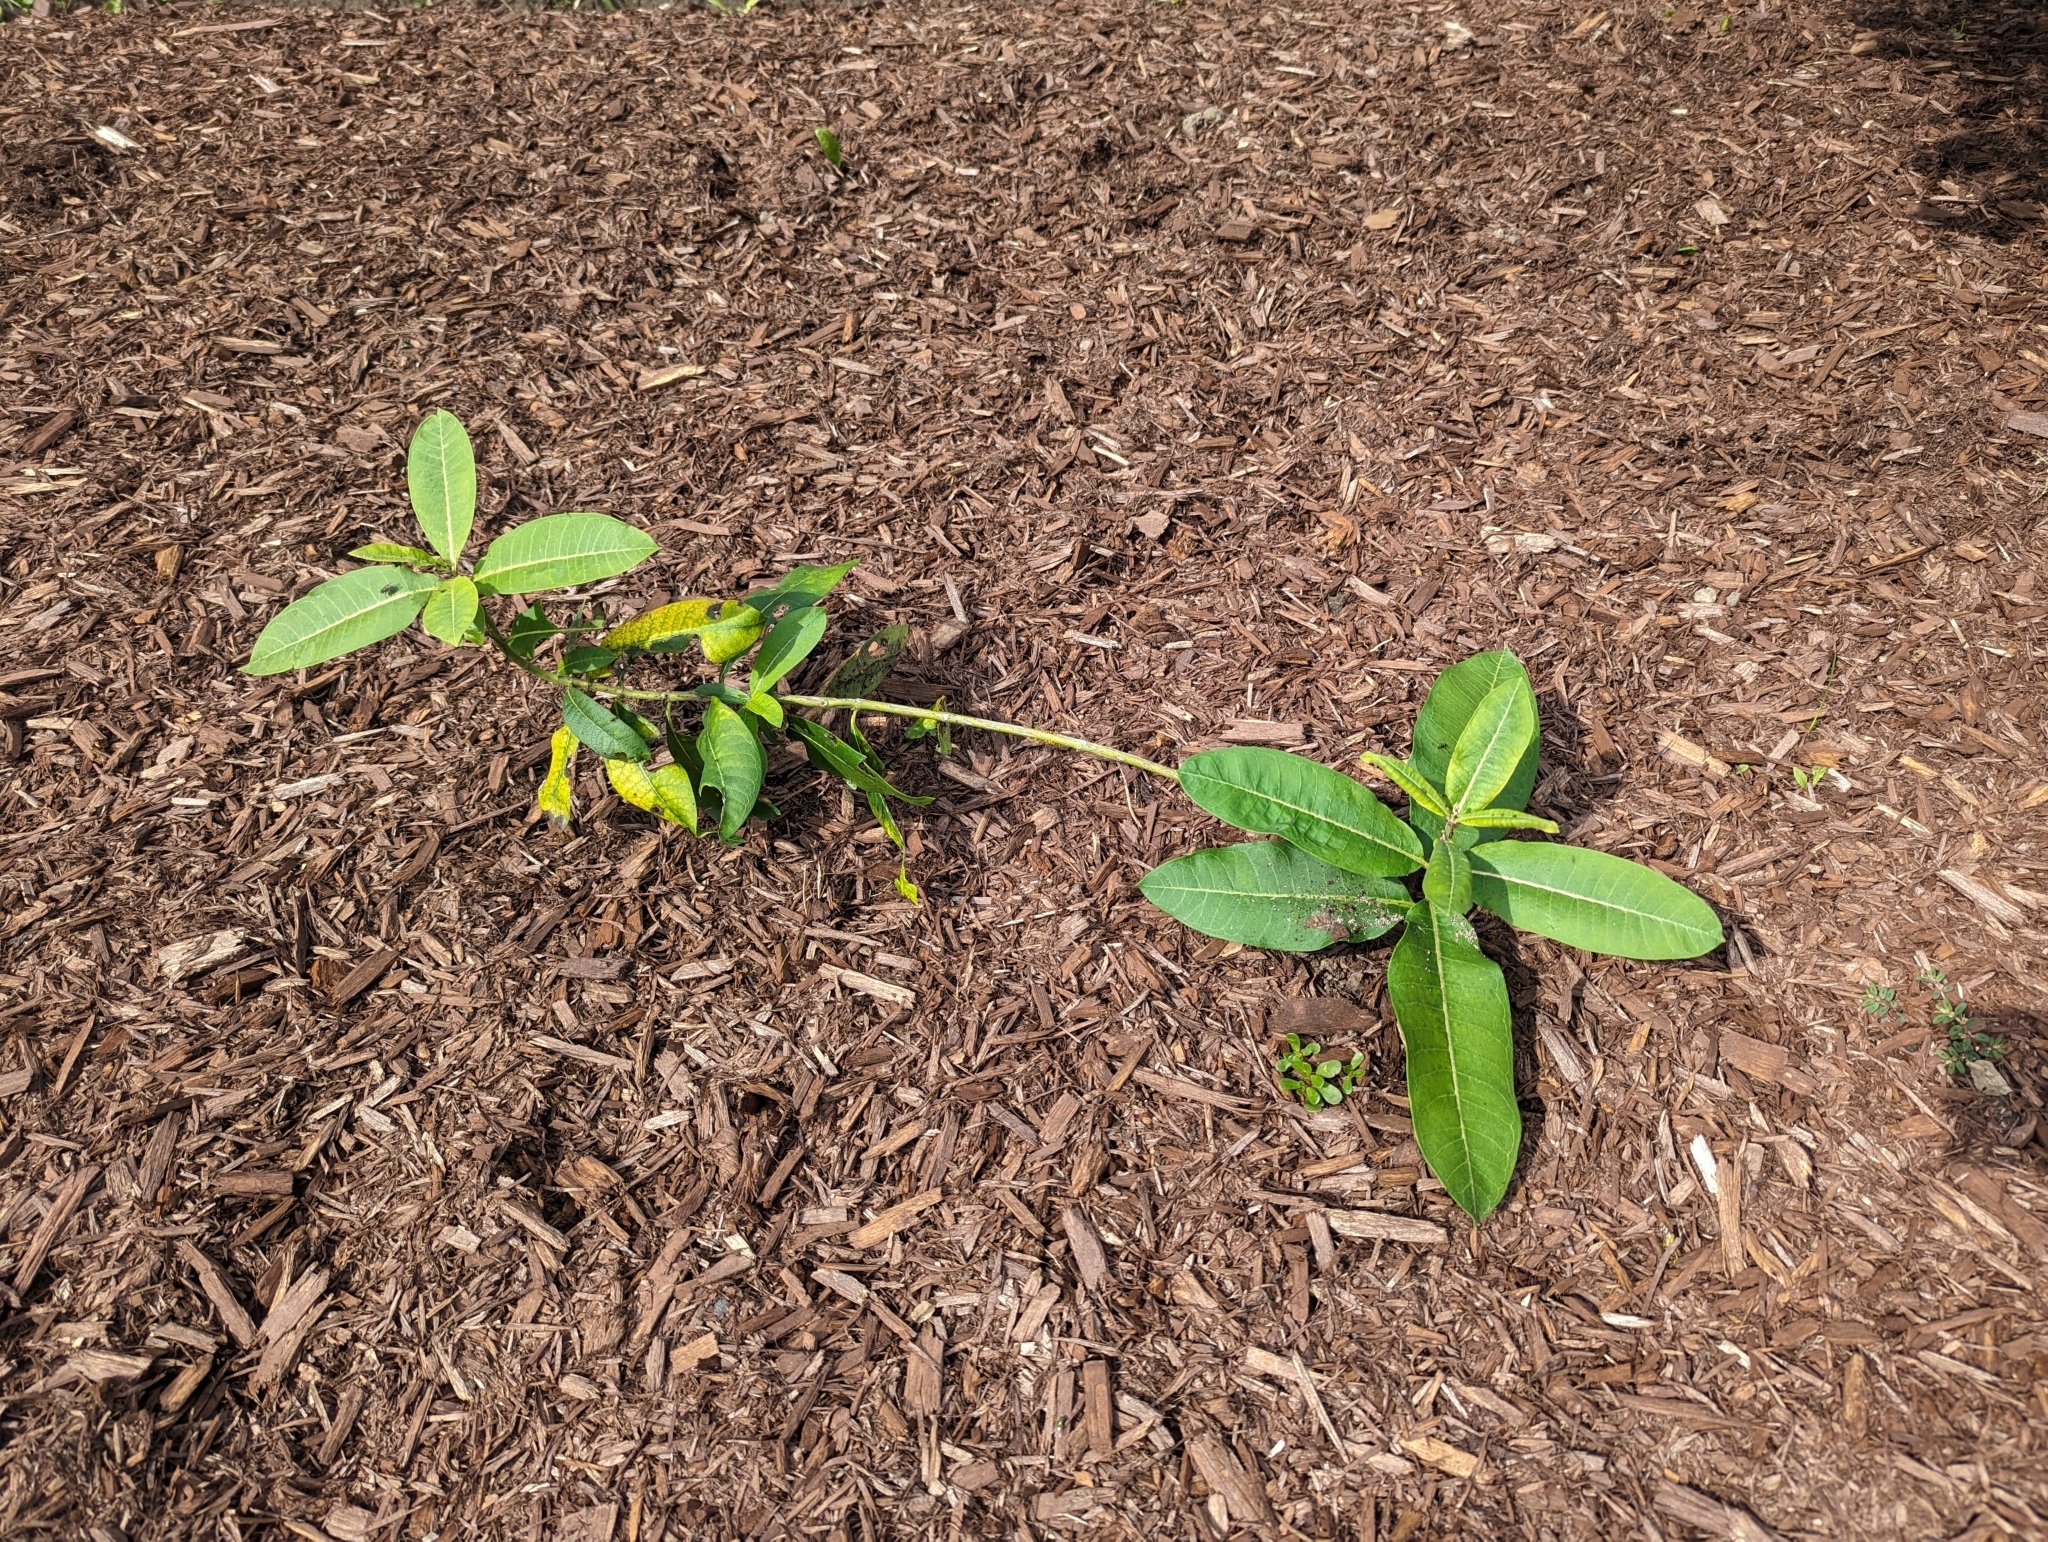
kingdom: Plantae
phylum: Tracheophyta
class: Magnoliopsida
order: Gentianales
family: Apocynaceae
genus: Asclepias
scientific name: Asclepias syriaca
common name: Common milkweed
